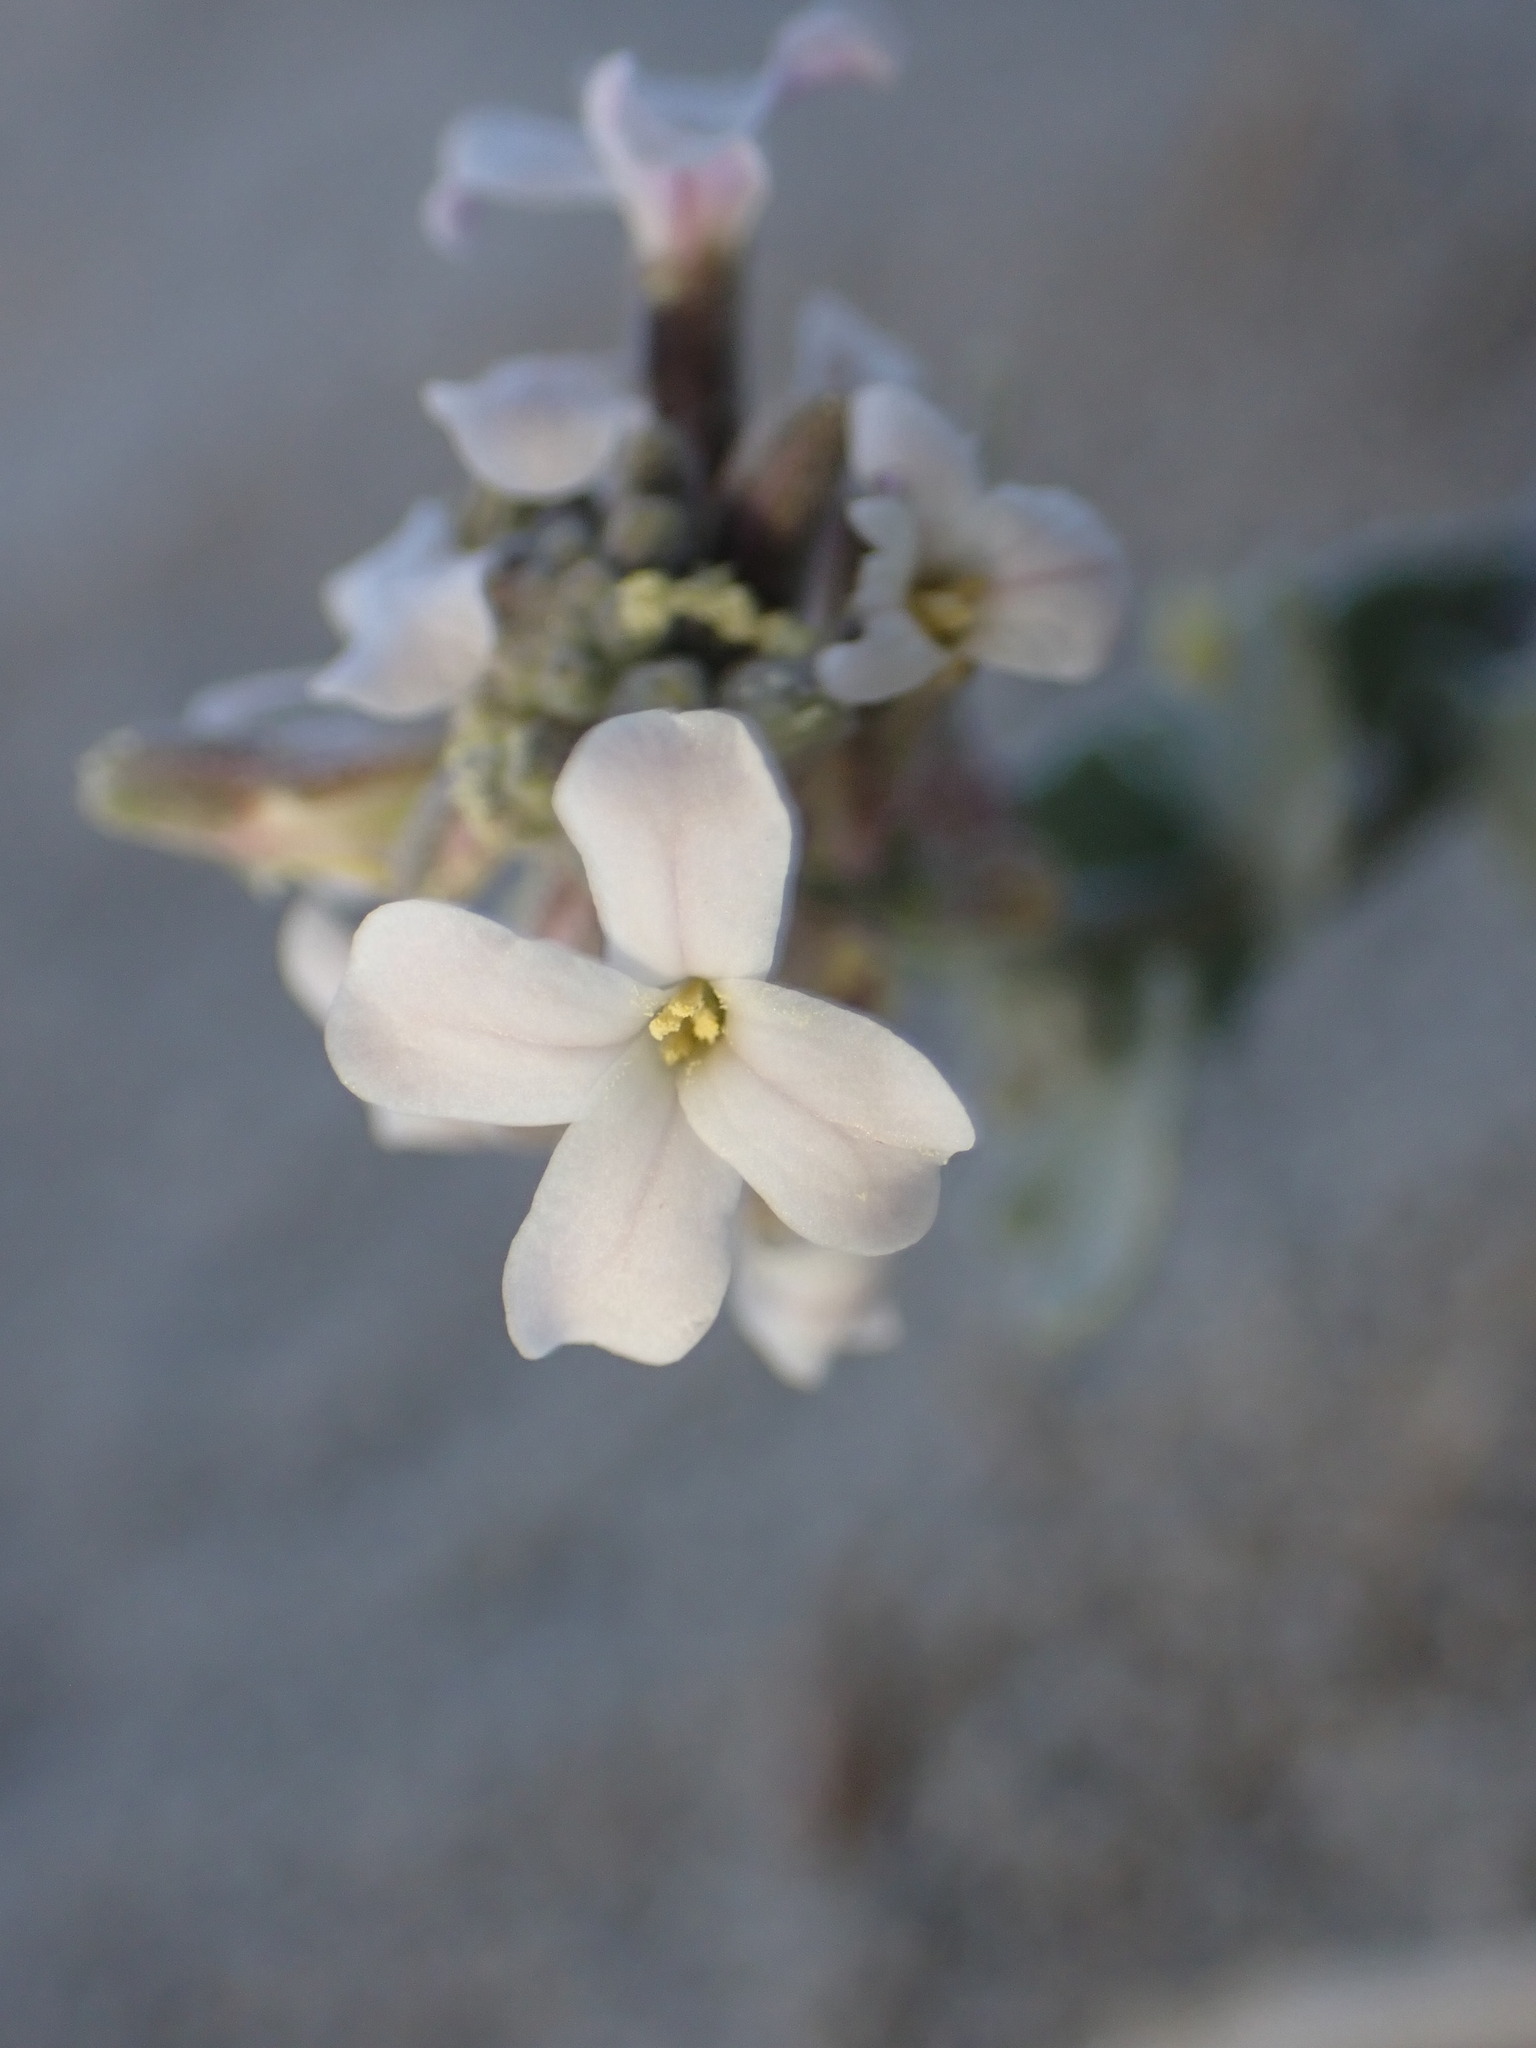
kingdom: Plantae
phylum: Tracheophyta
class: Magnoliopsida
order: Brassicales
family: Brassicaceae
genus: Dithyrea
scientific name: Dithyrea californica
